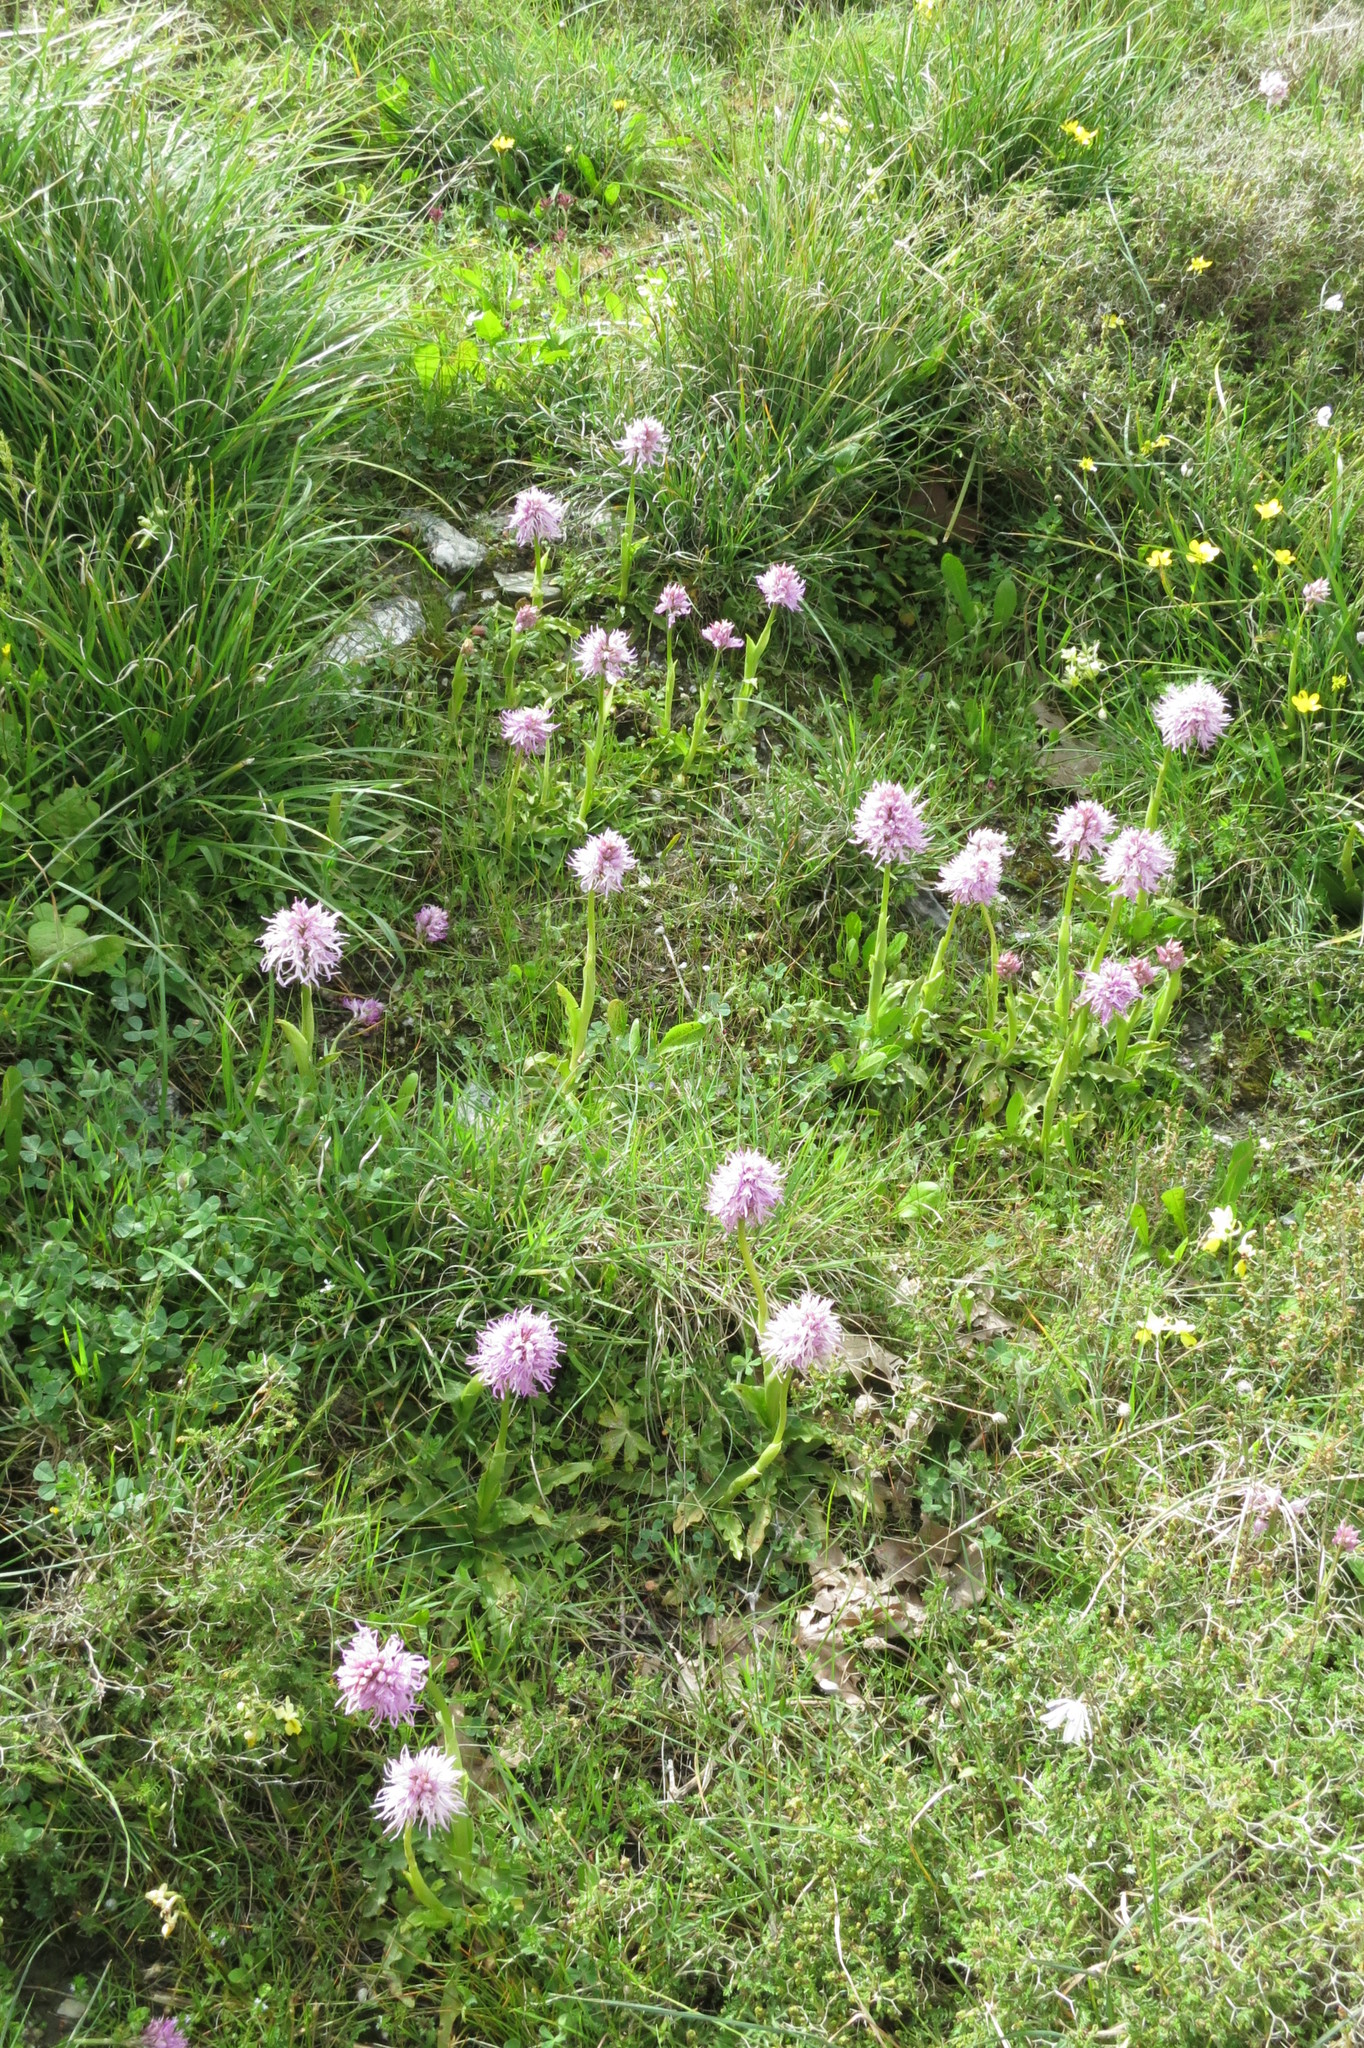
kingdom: Plantae
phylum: Tracheophyta
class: Liliopsida
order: Asparagales
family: Orchidaceae
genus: Orchis
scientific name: Orchis italica
